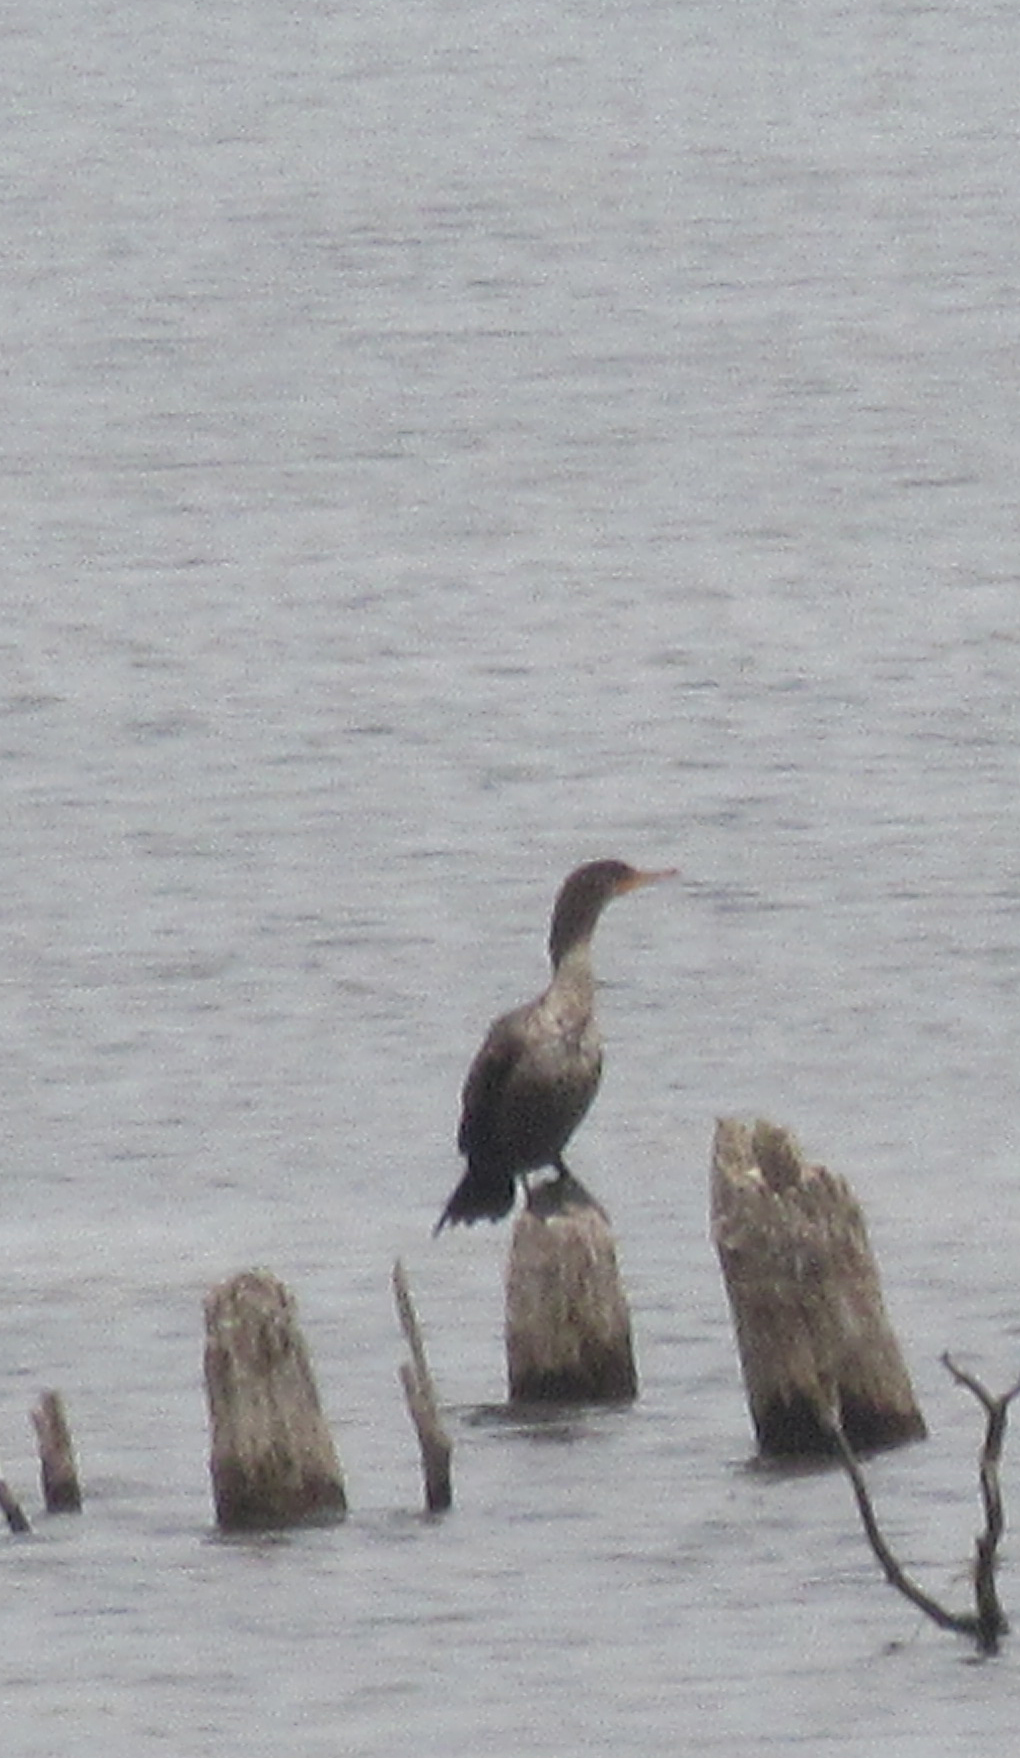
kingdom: Animalia
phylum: Chordata
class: Aves
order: Suliformes
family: Phalacrocoracidae
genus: Phalacrocorax
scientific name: Phalacrocorax auritus
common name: Double-crested cormorant
